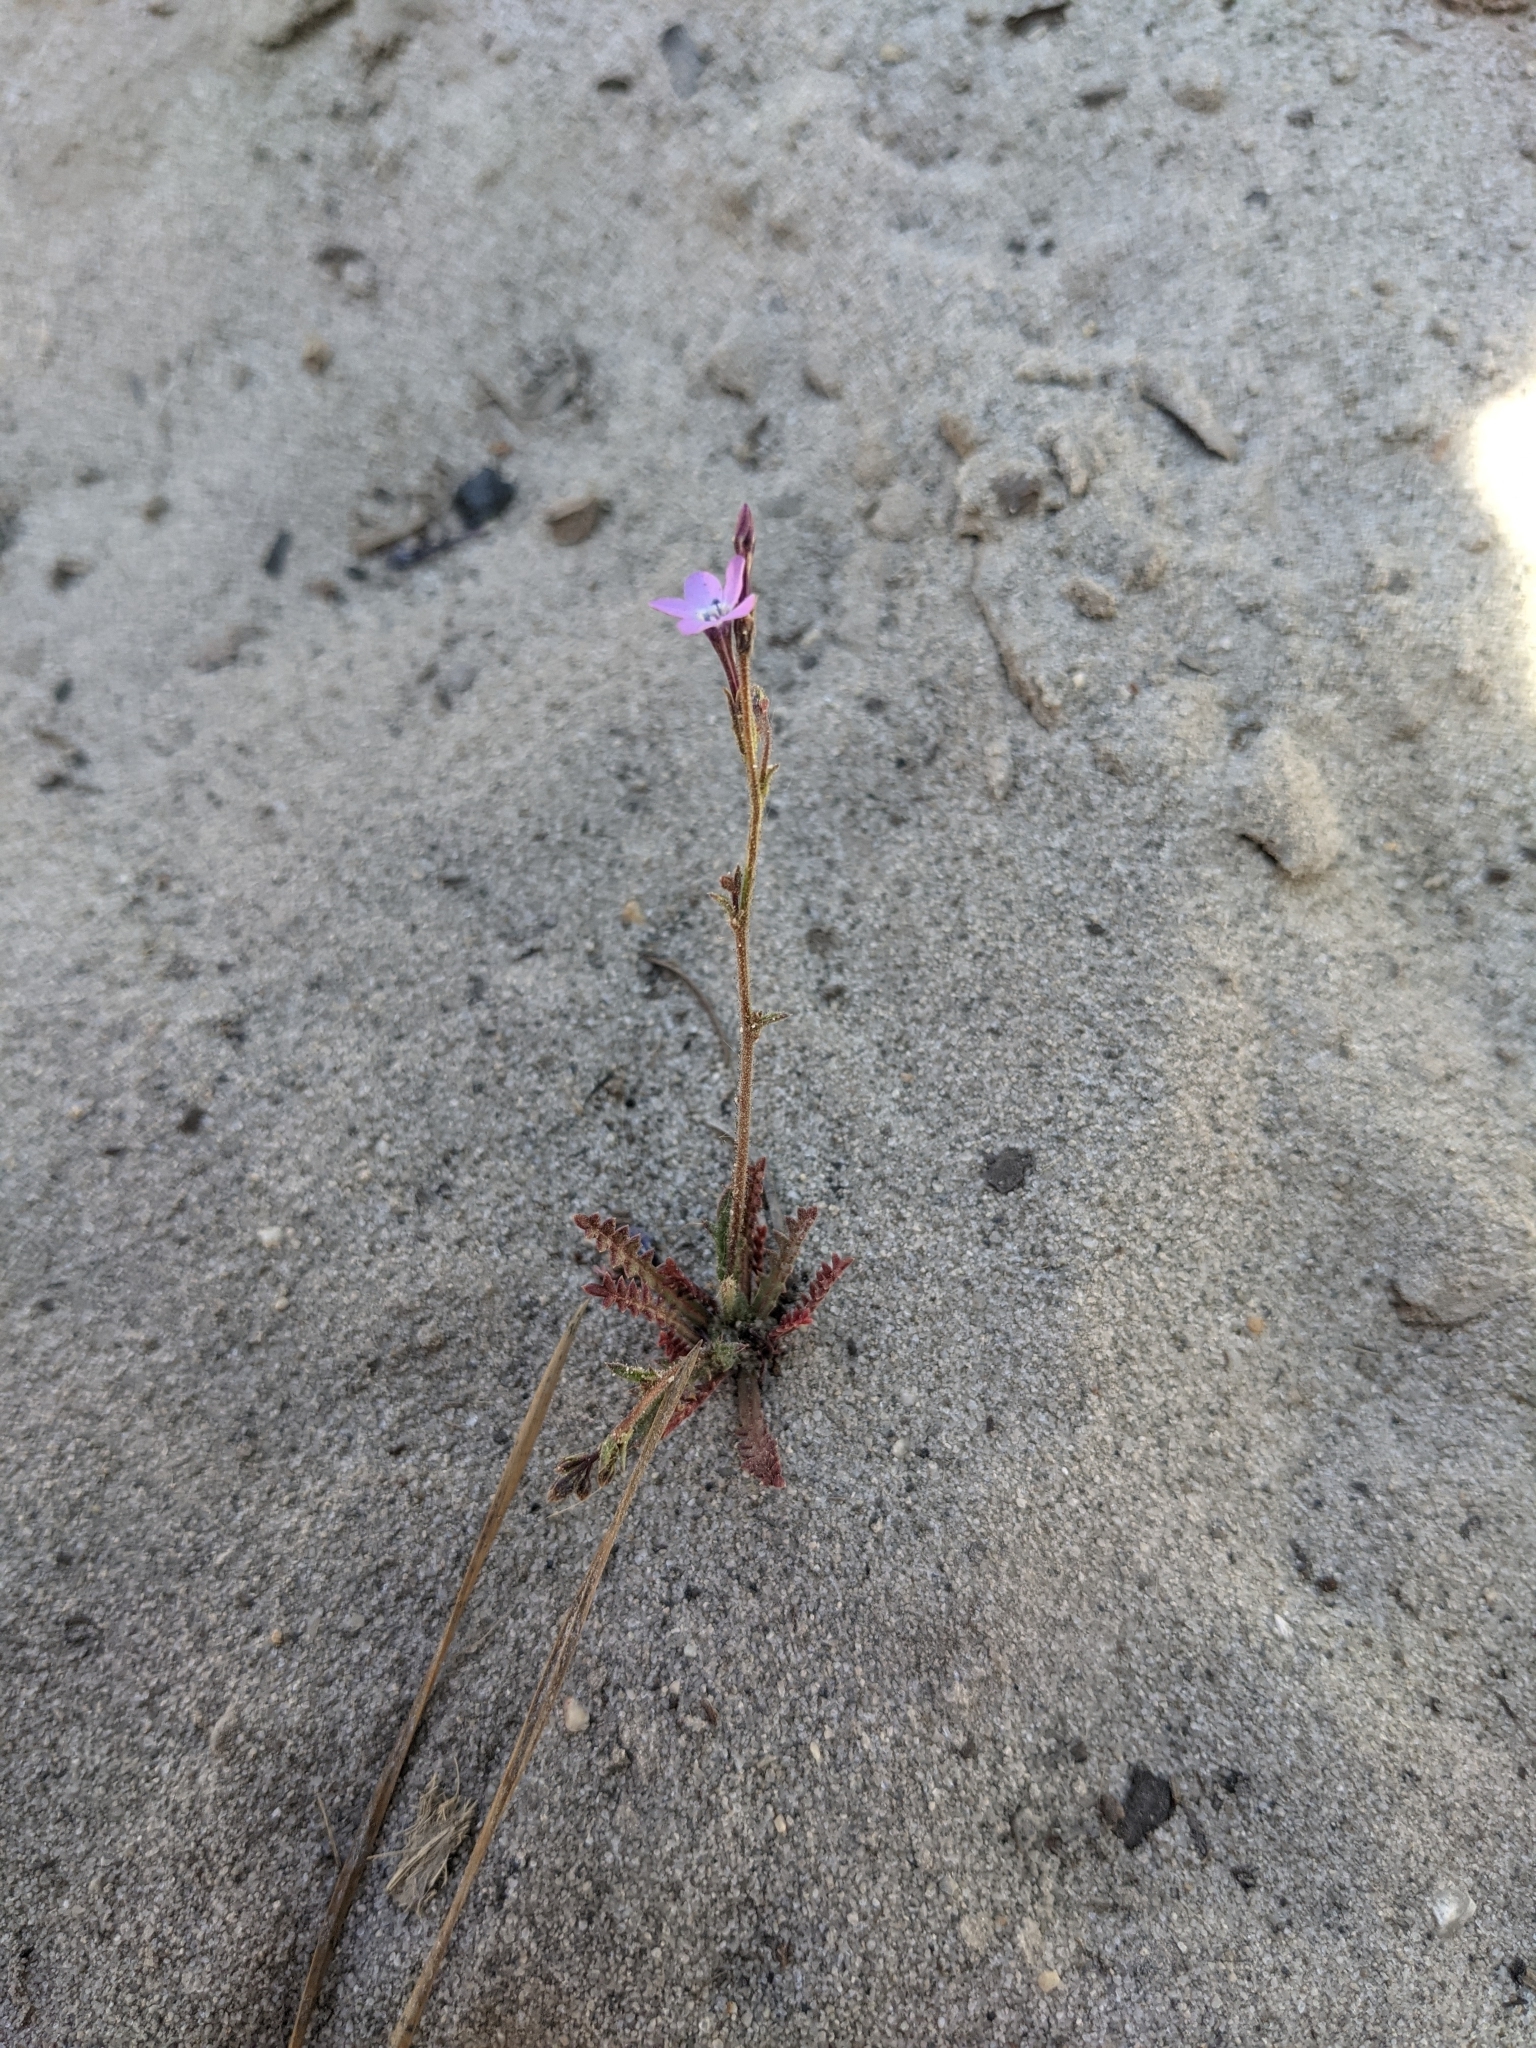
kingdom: Plantae
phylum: Tracheophyta
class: Magnoliopsida
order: Ericales
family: Polemoniaceae
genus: Gilia
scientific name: Gilia tenuiflora
